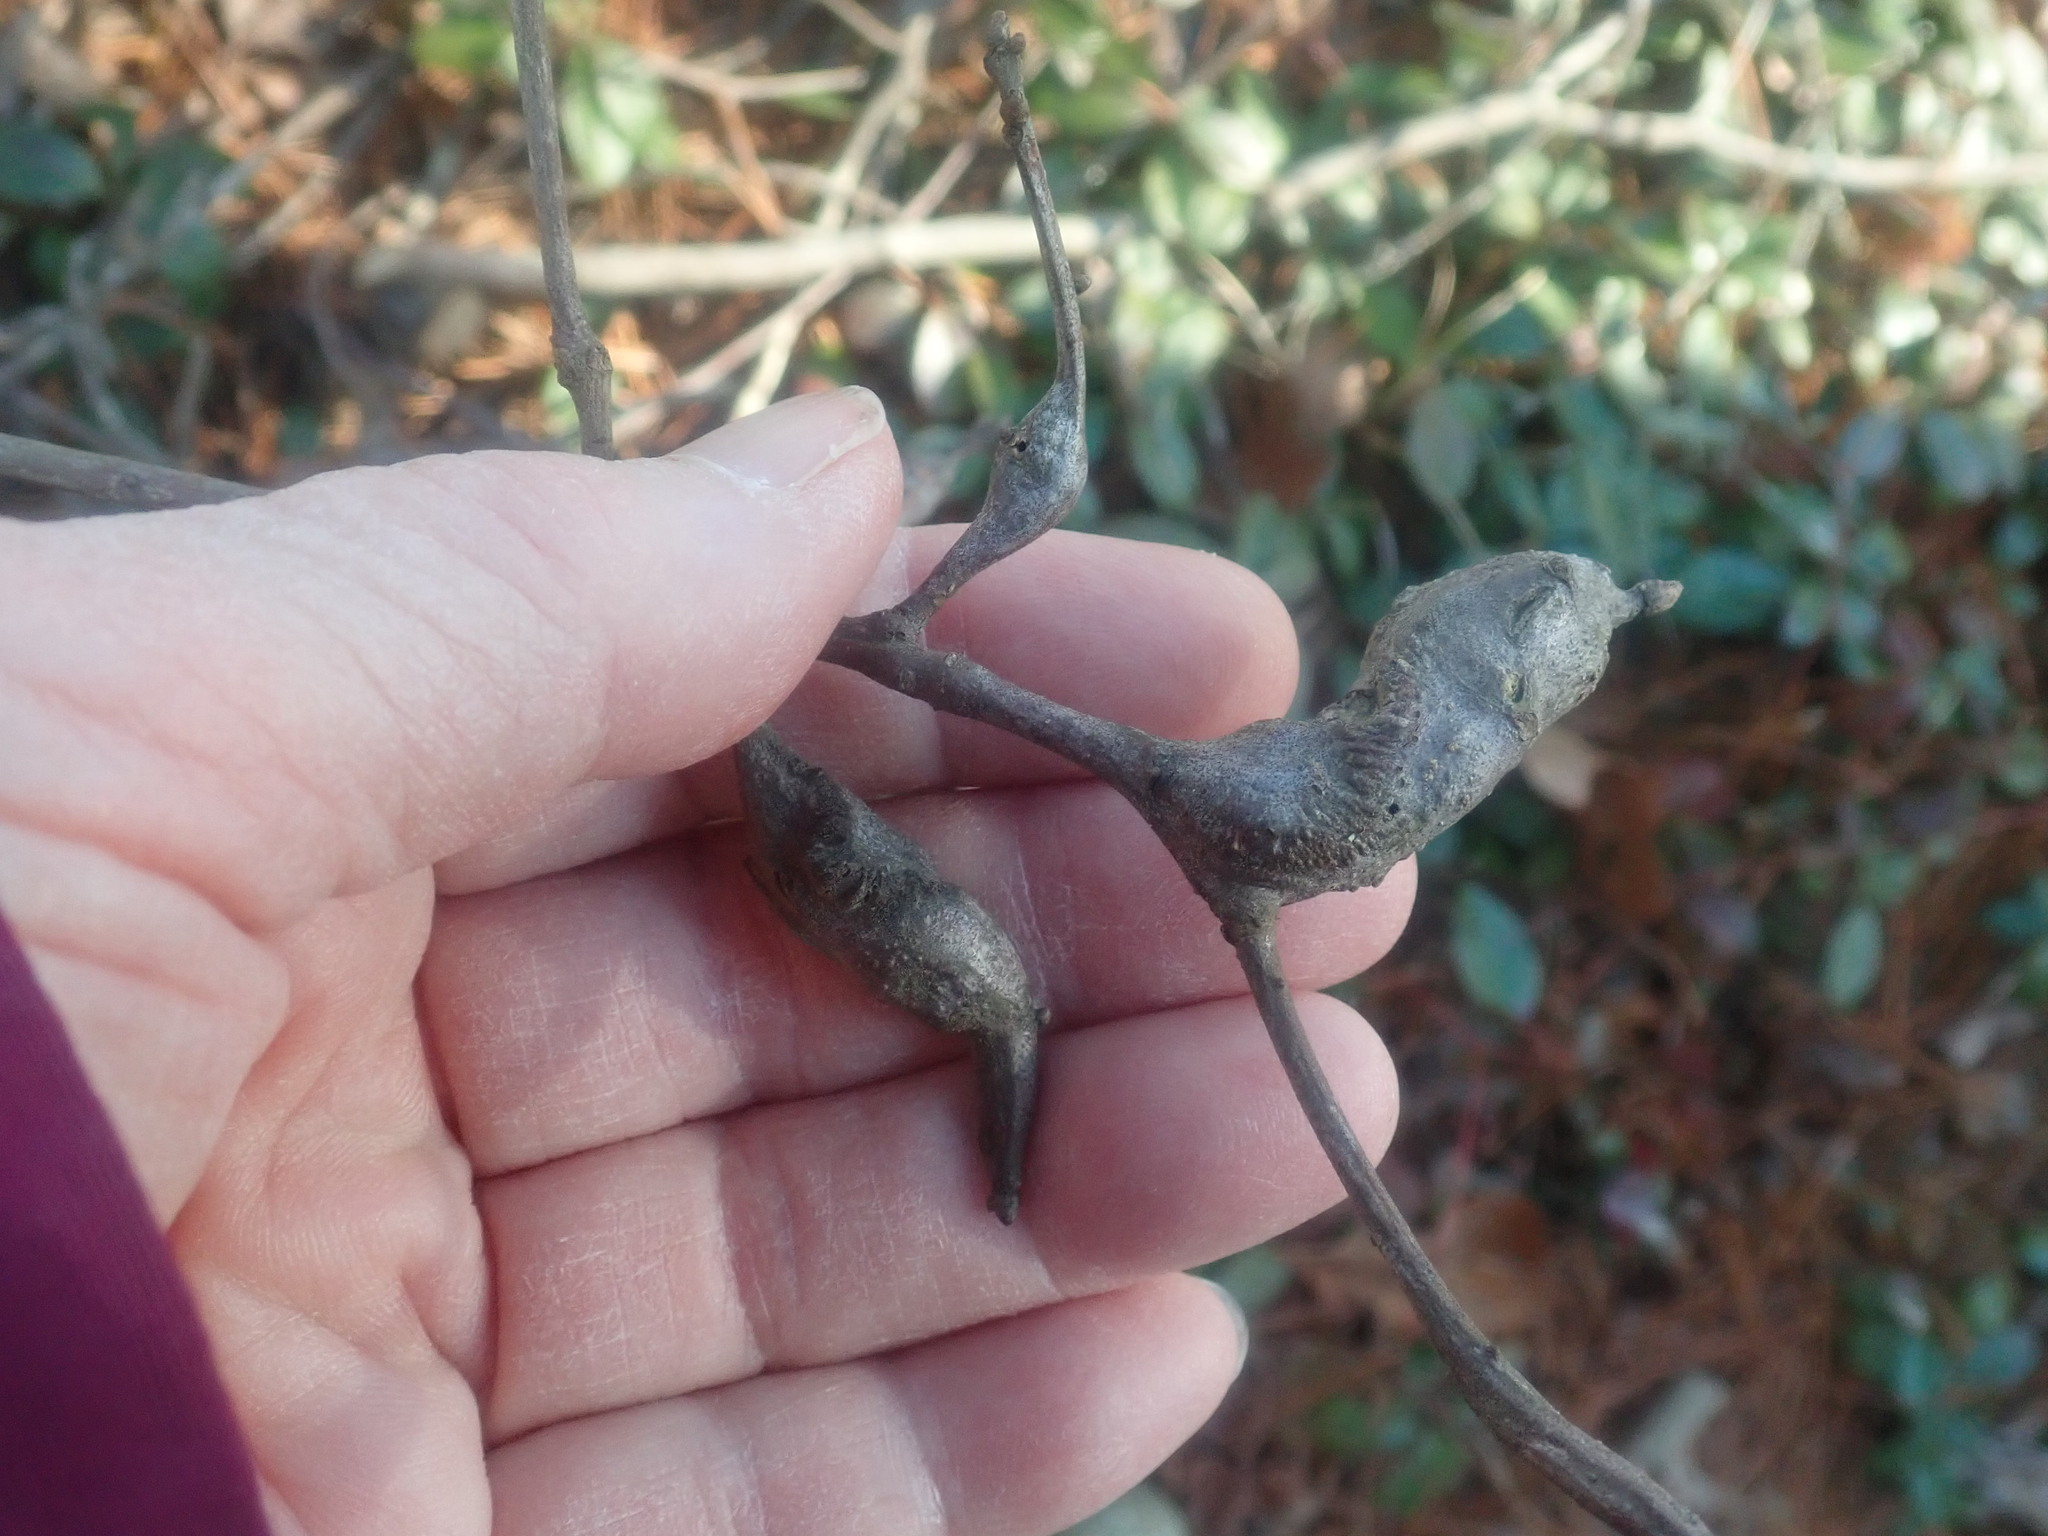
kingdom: Animalia
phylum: Arthropoda
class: Insecta
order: Hymenoptera
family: Cynipidae
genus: Zapatella
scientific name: Zapatella quercusphellos
